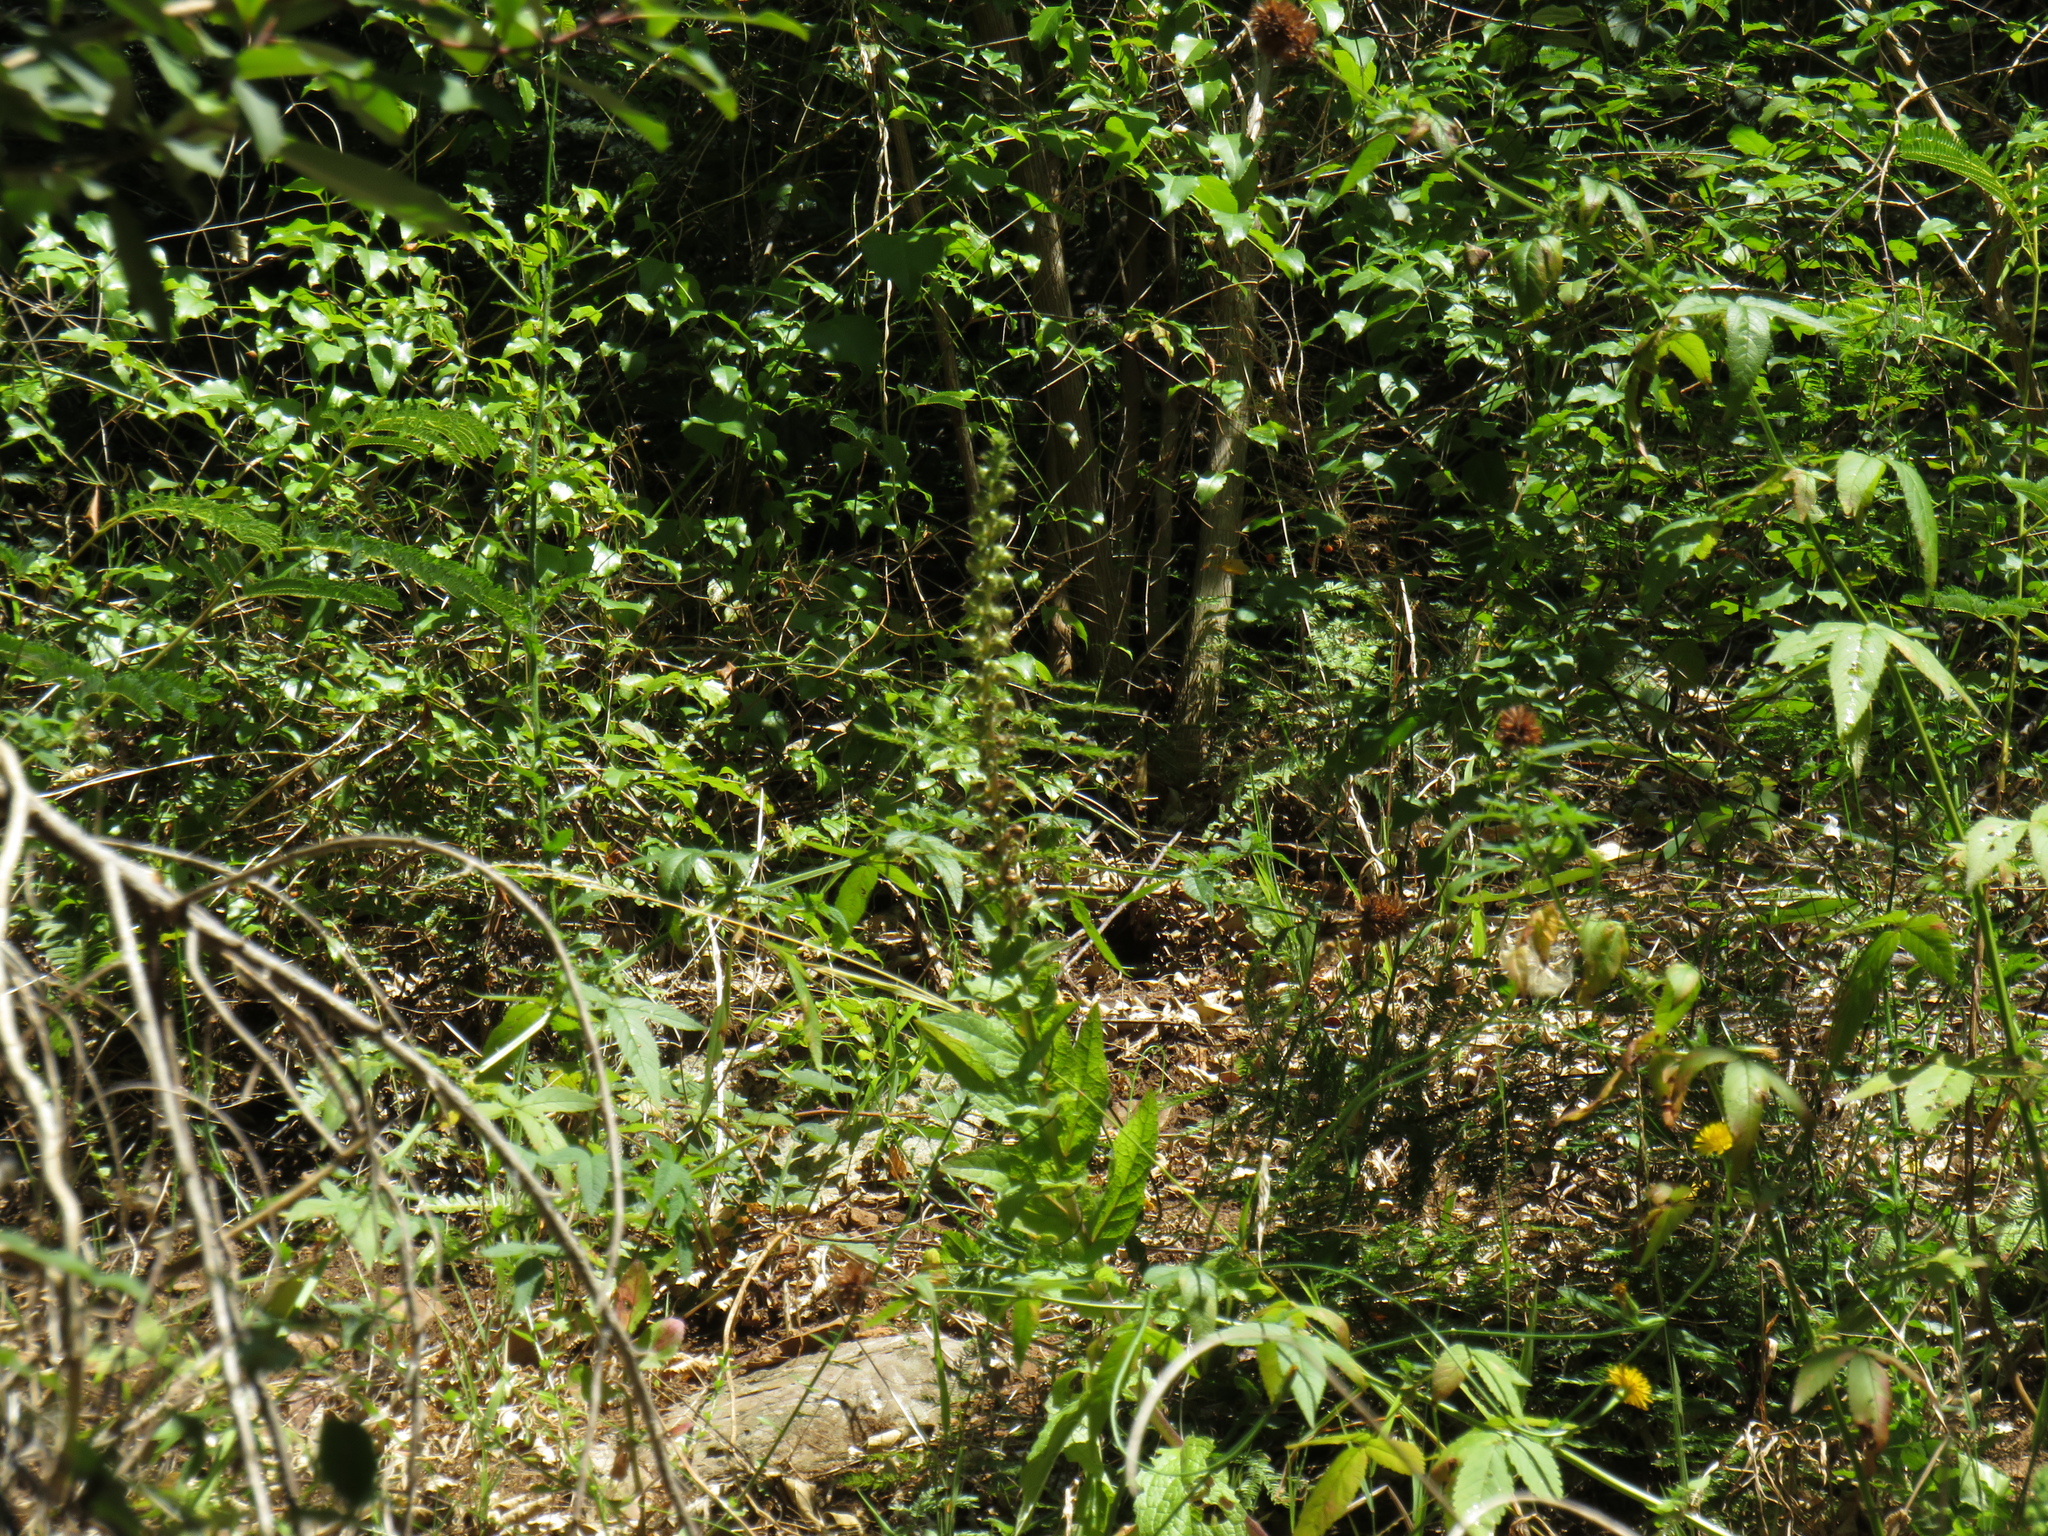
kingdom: Plantae
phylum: Tracheophyta
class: Magnoliopsida
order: Lamiales
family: Scrophulariaceae
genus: Verbascum
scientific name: Verbascum virgatum
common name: Twiggy mullein
